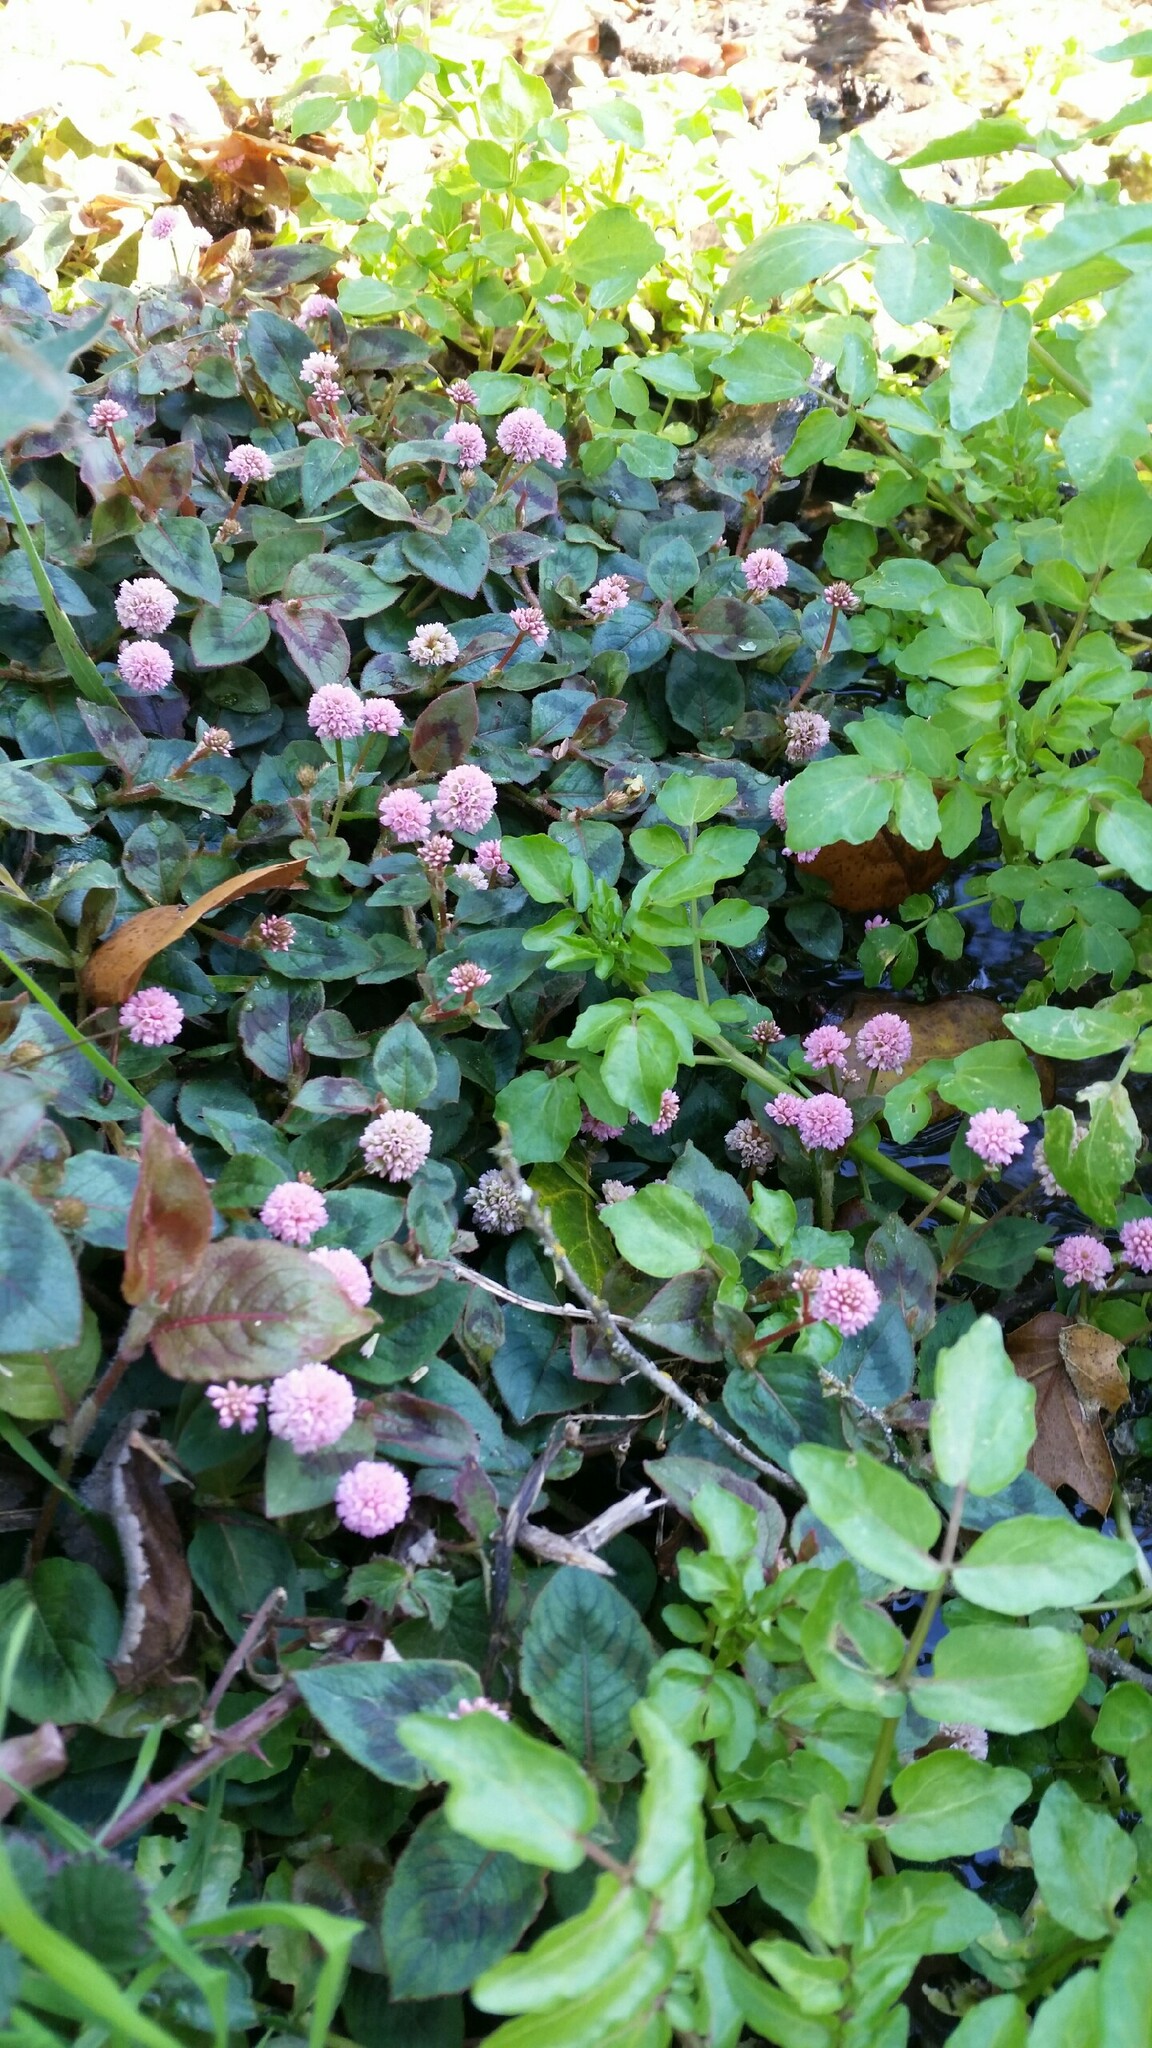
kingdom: Plantae
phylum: Tracheophyta
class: Magnoliopsida
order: Caryophyllales
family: Polygonaceae
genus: Persicaria
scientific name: Persicaria capitata
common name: Pinkhead smartweed
